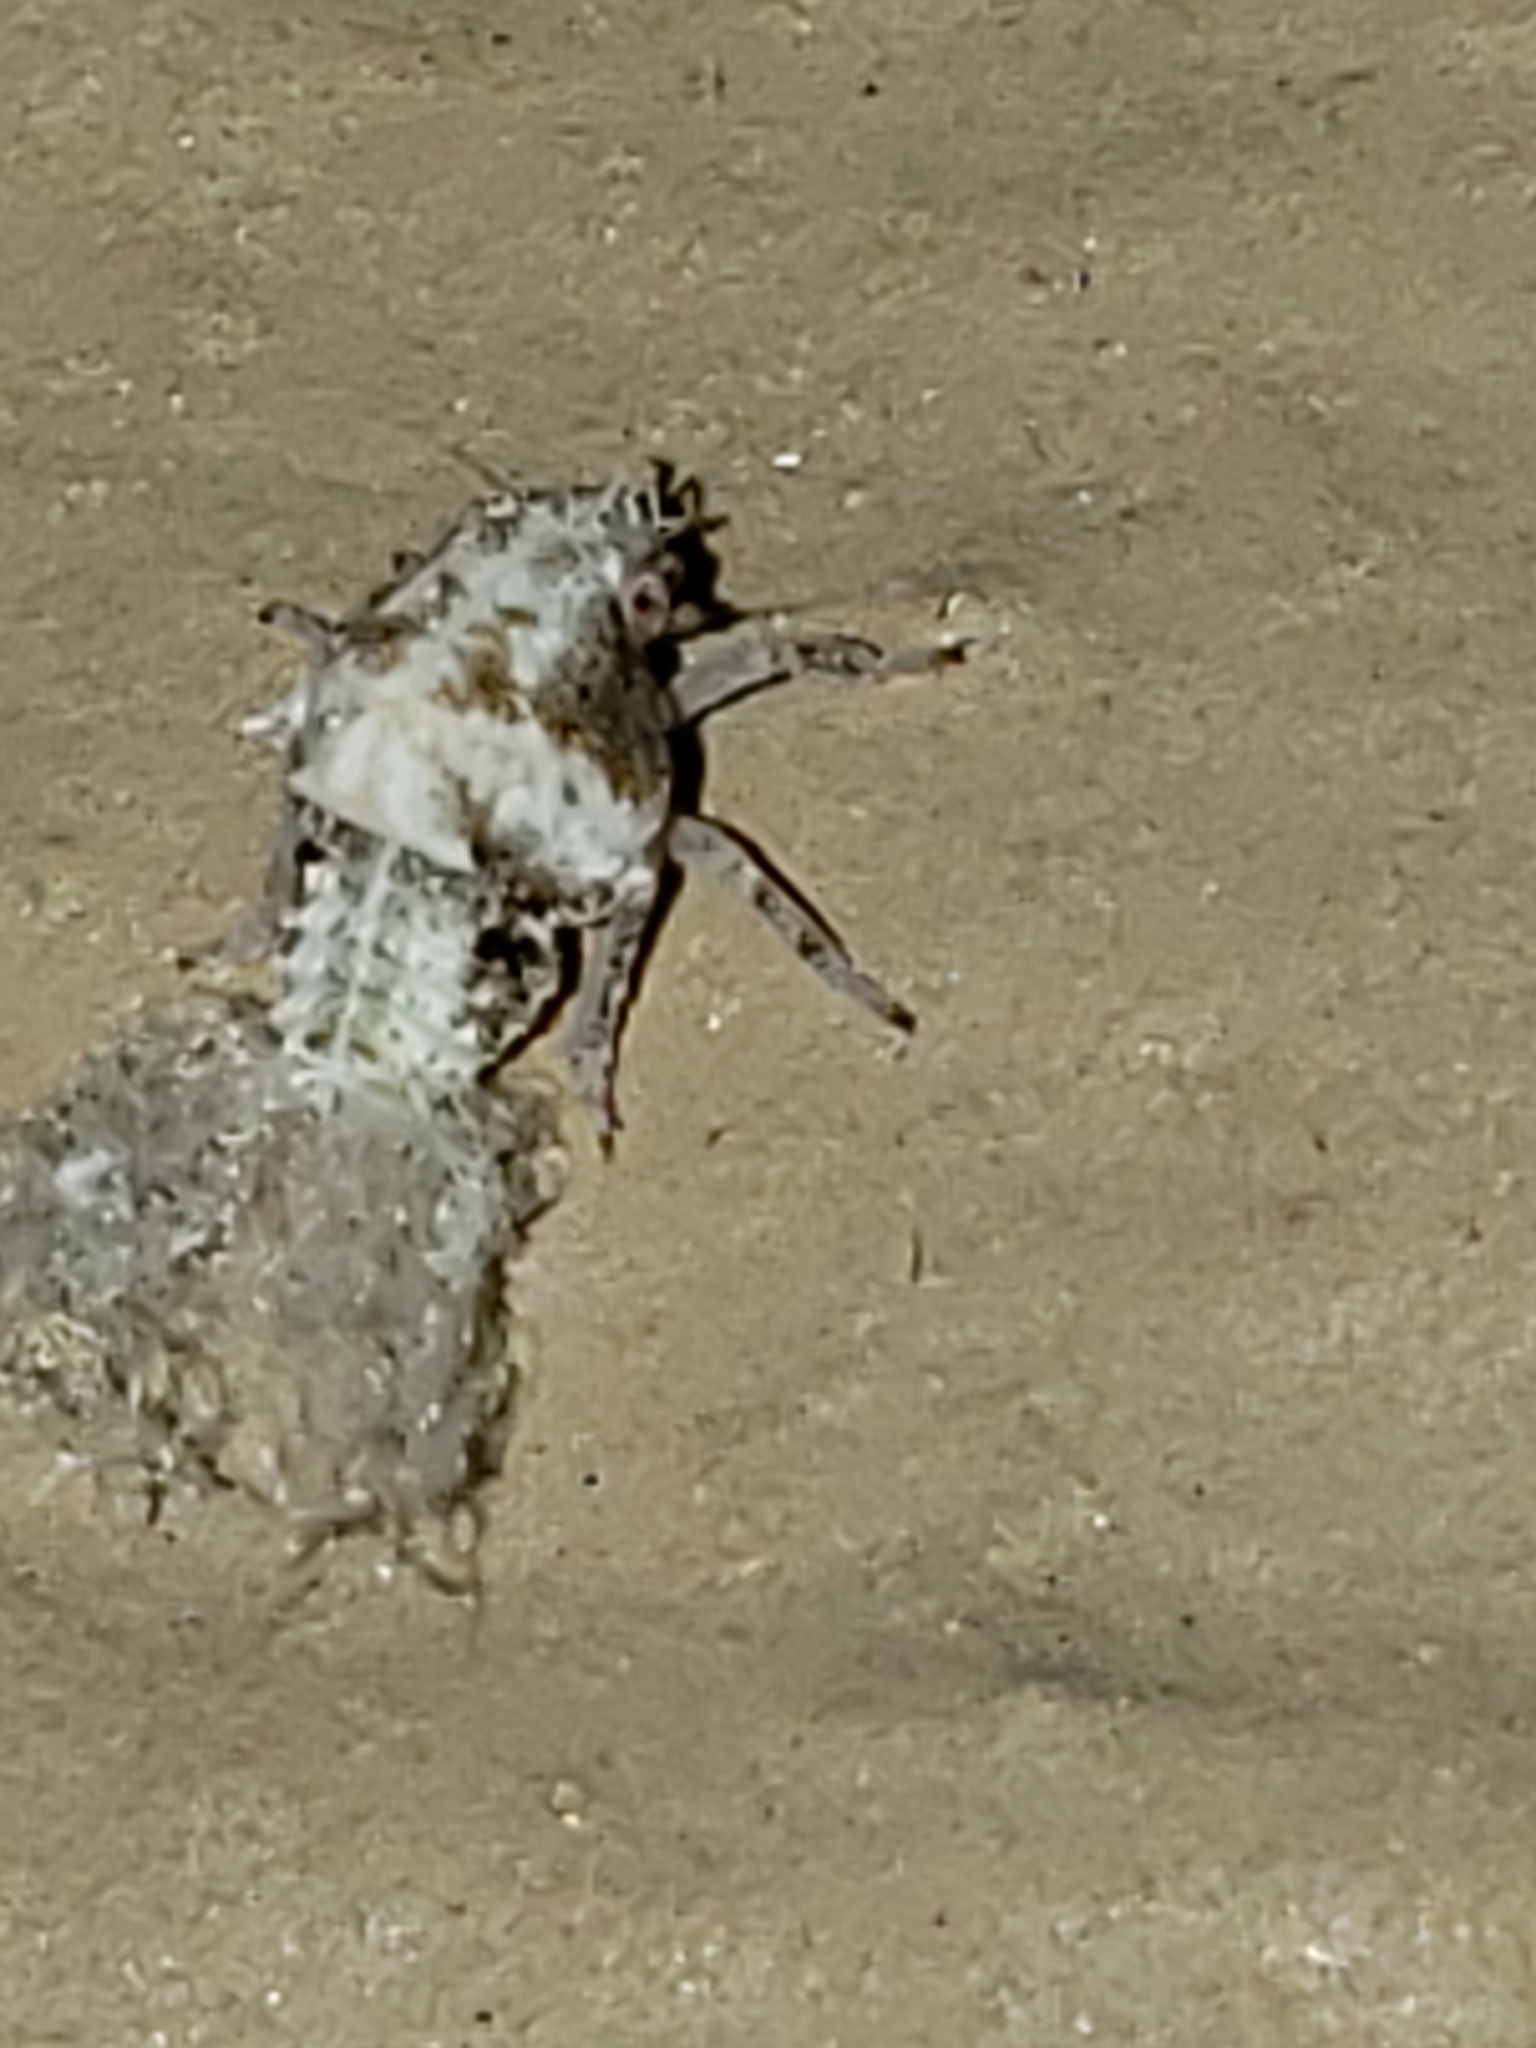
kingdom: Animalia
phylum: Arthropoda
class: Insecta
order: Hemiptera
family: Acanaloniidae
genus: Acanalonia
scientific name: Acanalonia bivittata
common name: Two-striped planthopper
